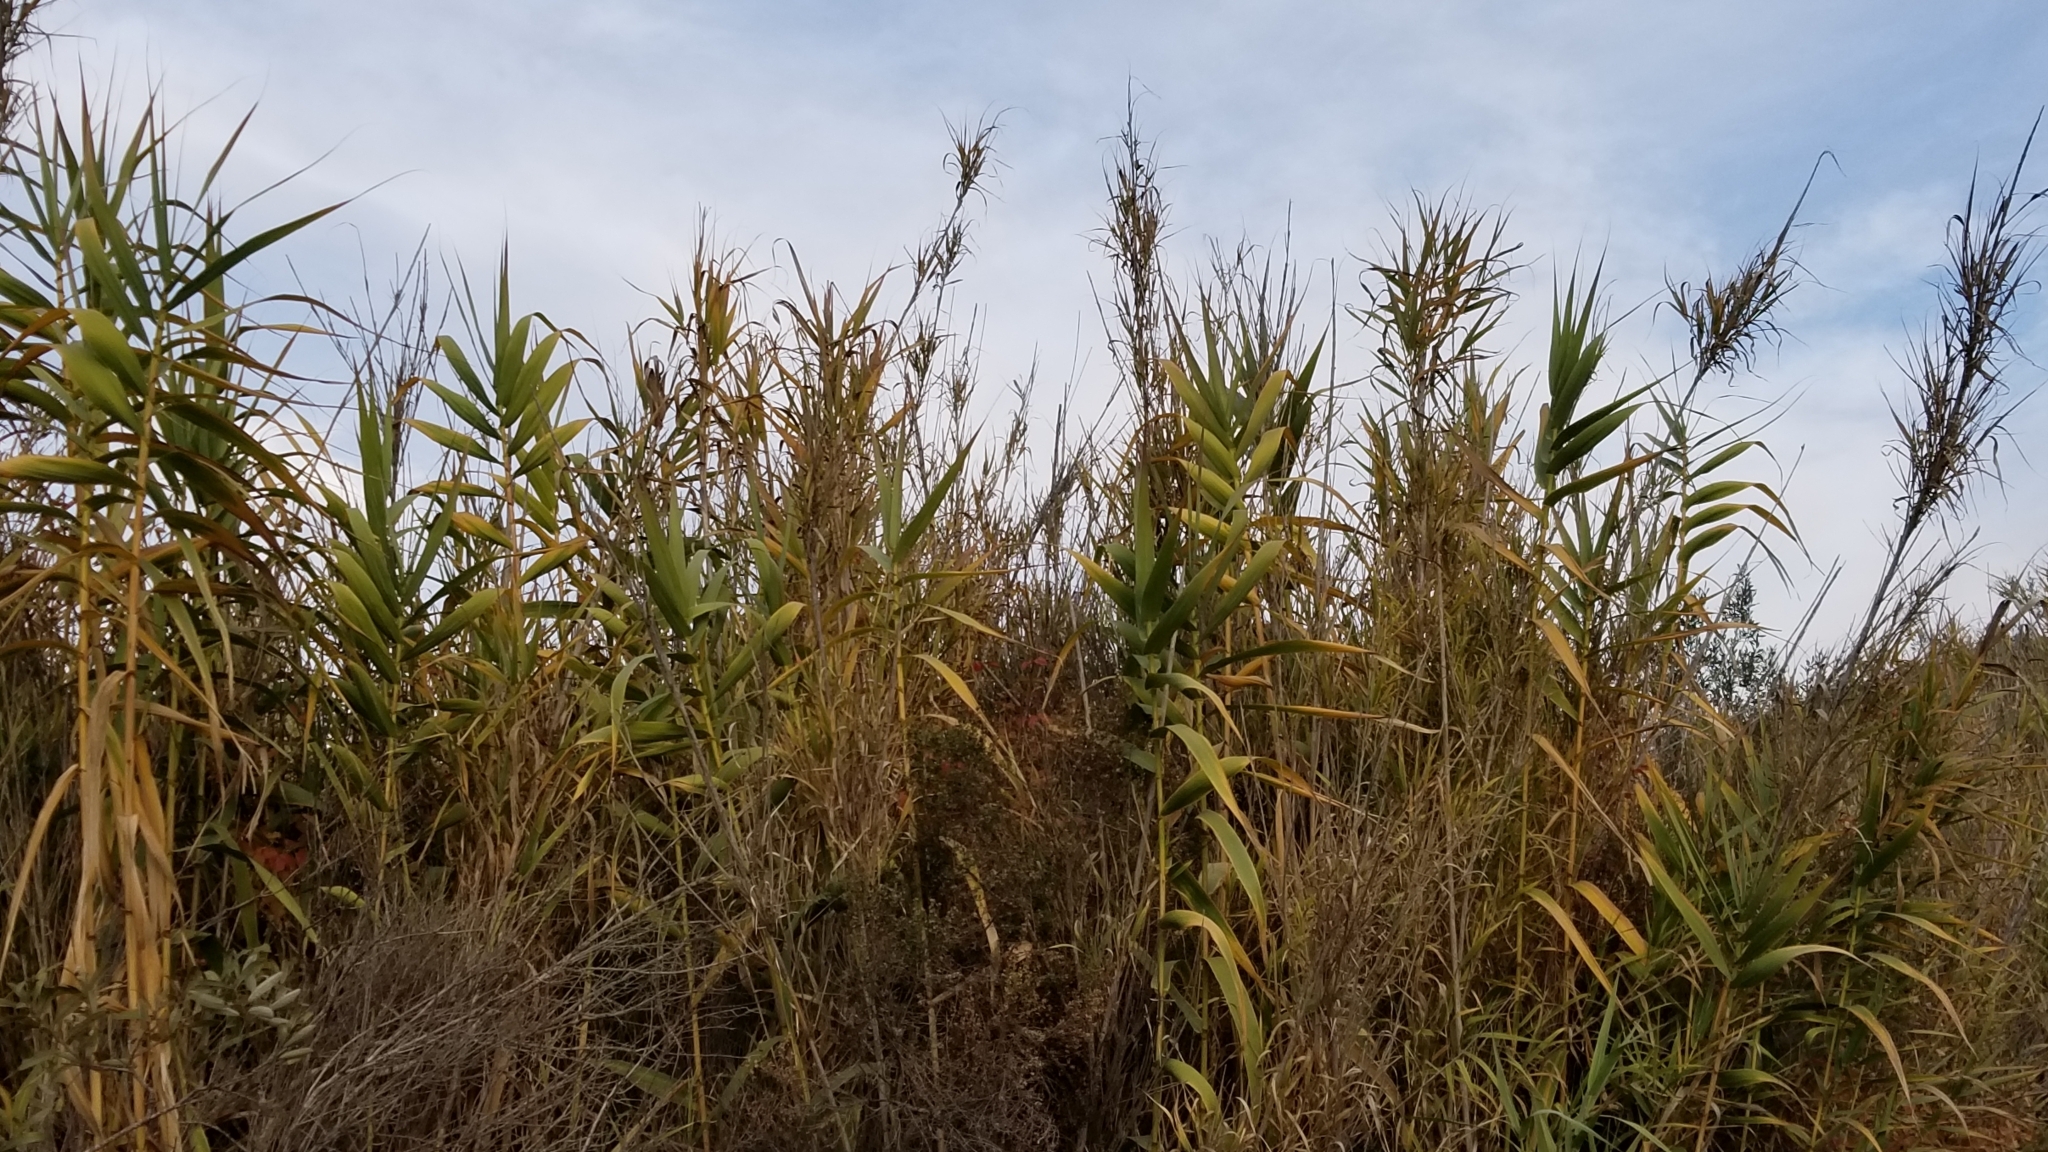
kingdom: Plantae
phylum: Tracheophyta
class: Liliopsida
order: Poales
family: Poaceae
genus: Arundo
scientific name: Arundo donax
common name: Giant reed
